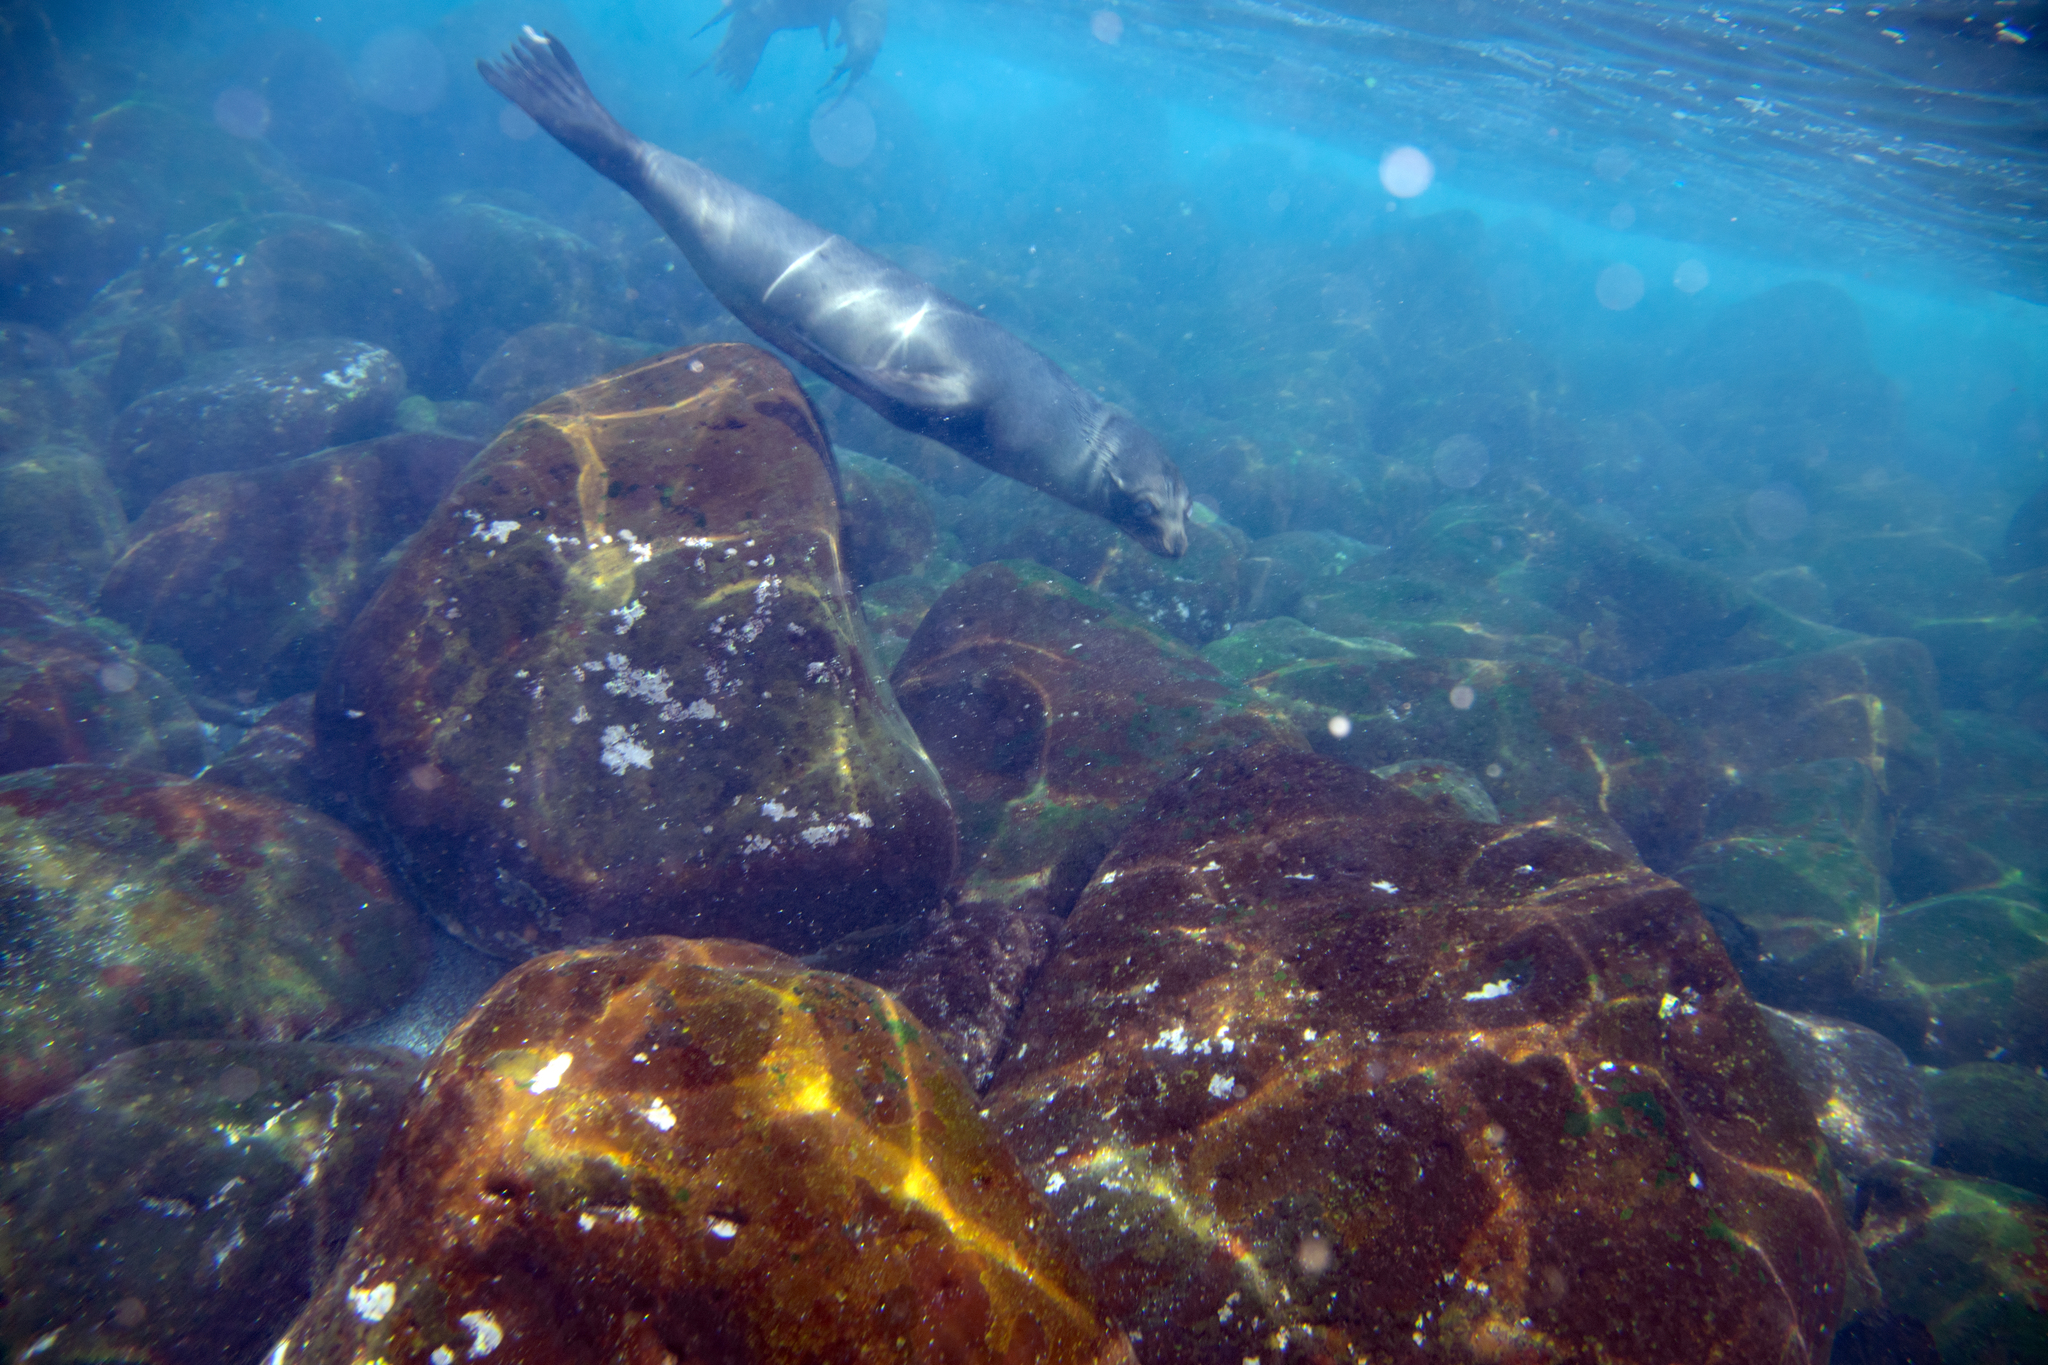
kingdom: Animalia
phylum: Chordata
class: Mammalia
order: Carnivora
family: Otariidae
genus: Zalophus
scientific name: Zalophus wollebaeki
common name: Galapagos sea lion
